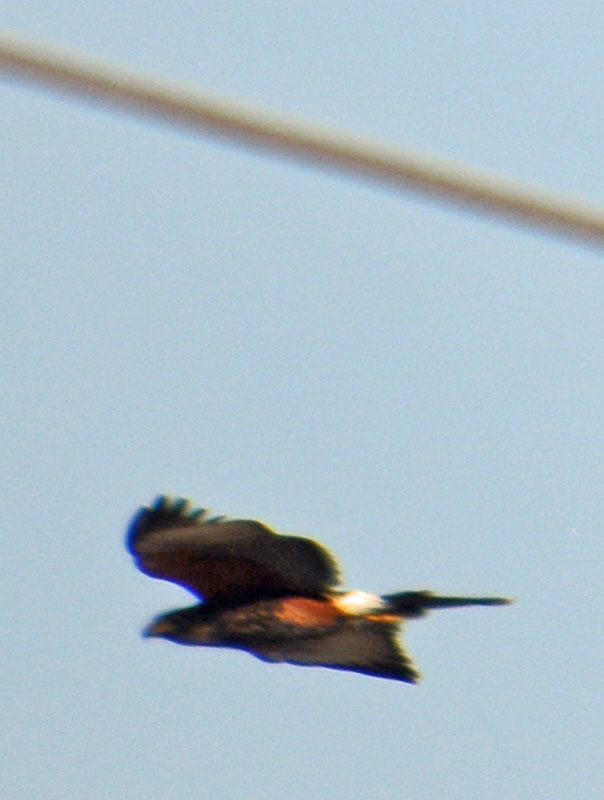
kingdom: Animalia
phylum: Chordata
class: Aves
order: Accipitriformes
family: Accipitridae
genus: Parabuteo
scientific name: Parabuteo unicinctus
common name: Harris's hawk
